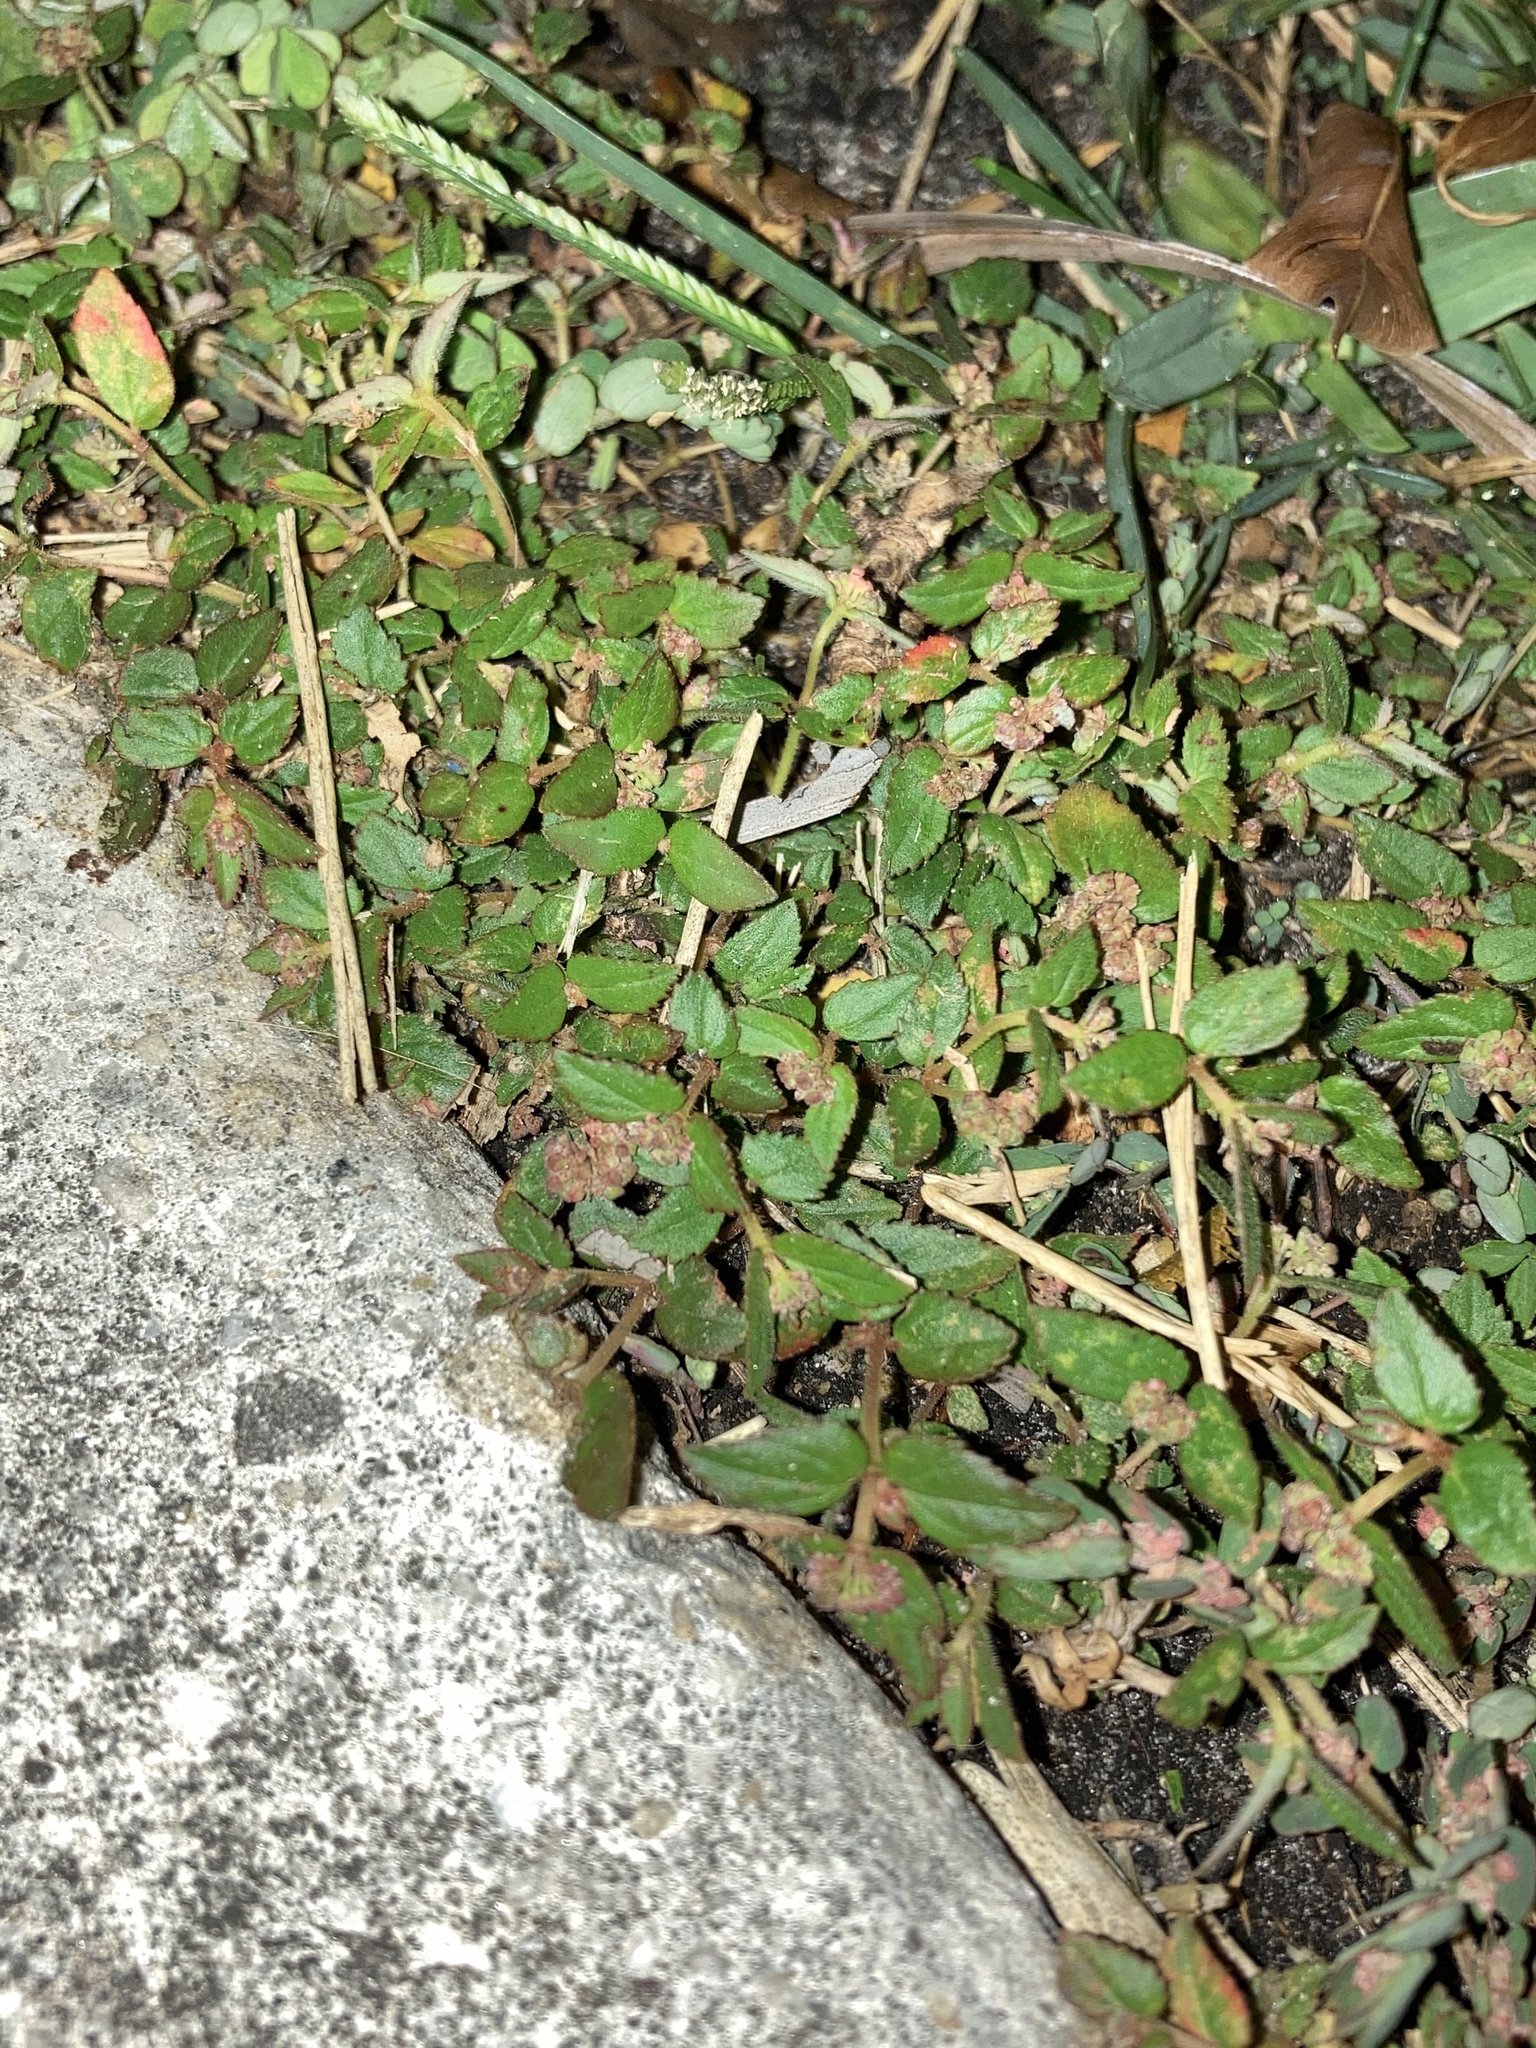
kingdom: Plantae
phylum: Tracheophyta
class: Magnoliopsida
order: Malpighiales
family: Euphorbiaceae
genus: Euphorbia
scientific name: Euphorbia ophthalmica
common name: Florida hammock sandmat
